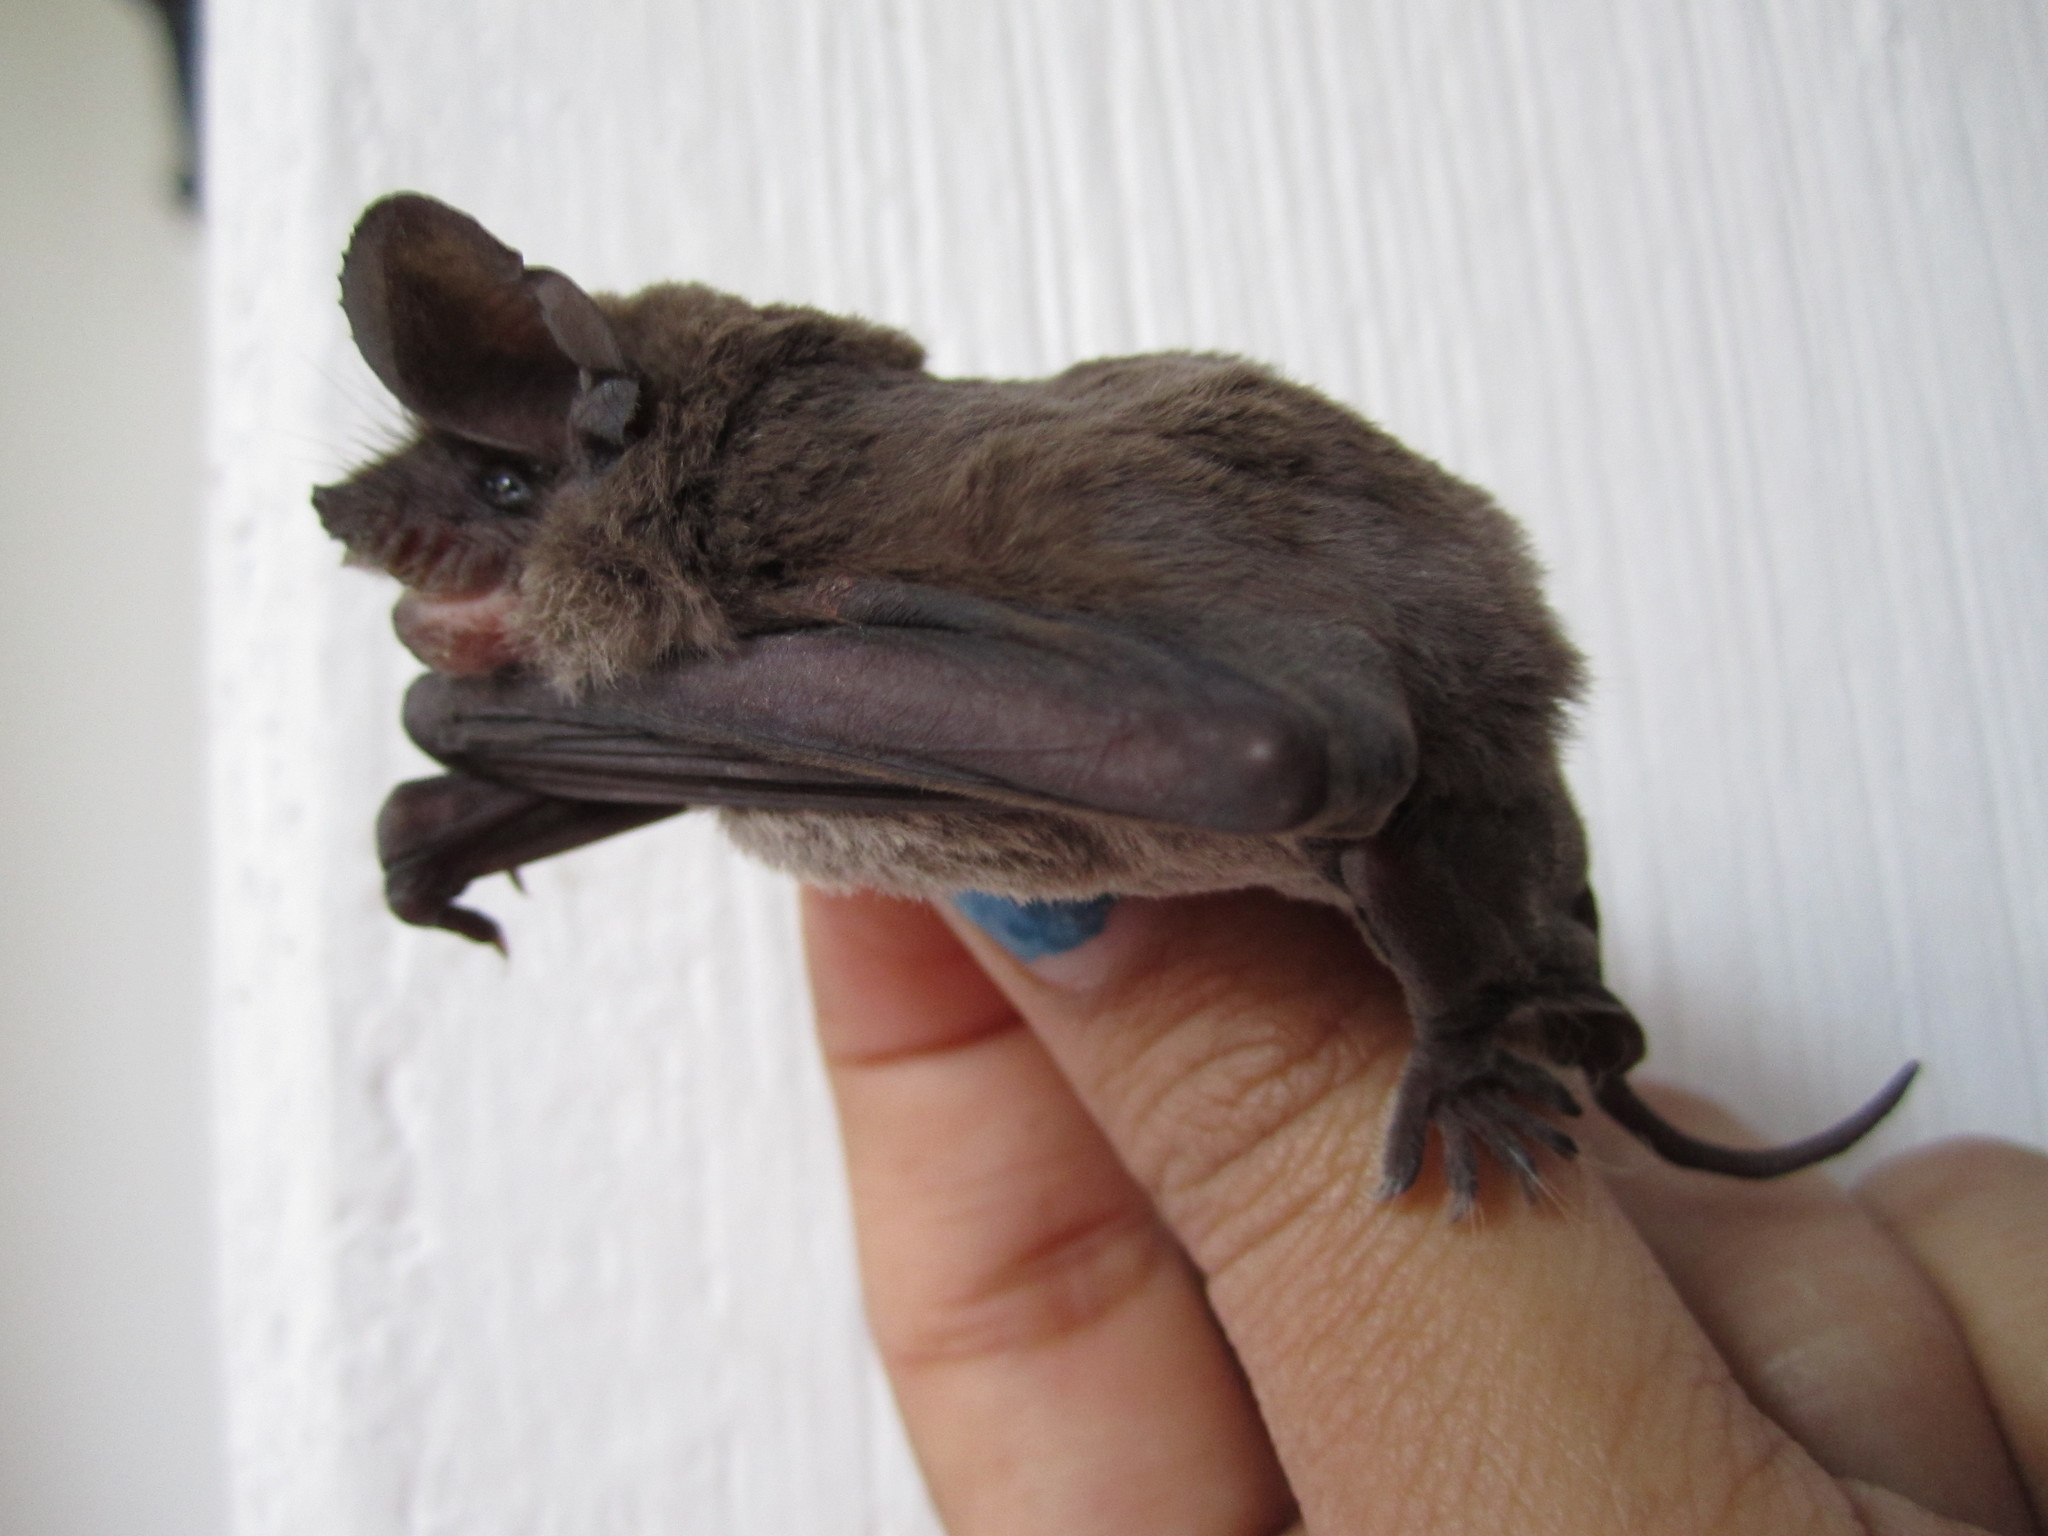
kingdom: Animalia
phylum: Chordata
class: Mammalia
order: Chiroptera
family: Molossidae
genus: Tadarida
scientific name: Tadarida brasiliensis
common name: Mexican free-tailed bat
